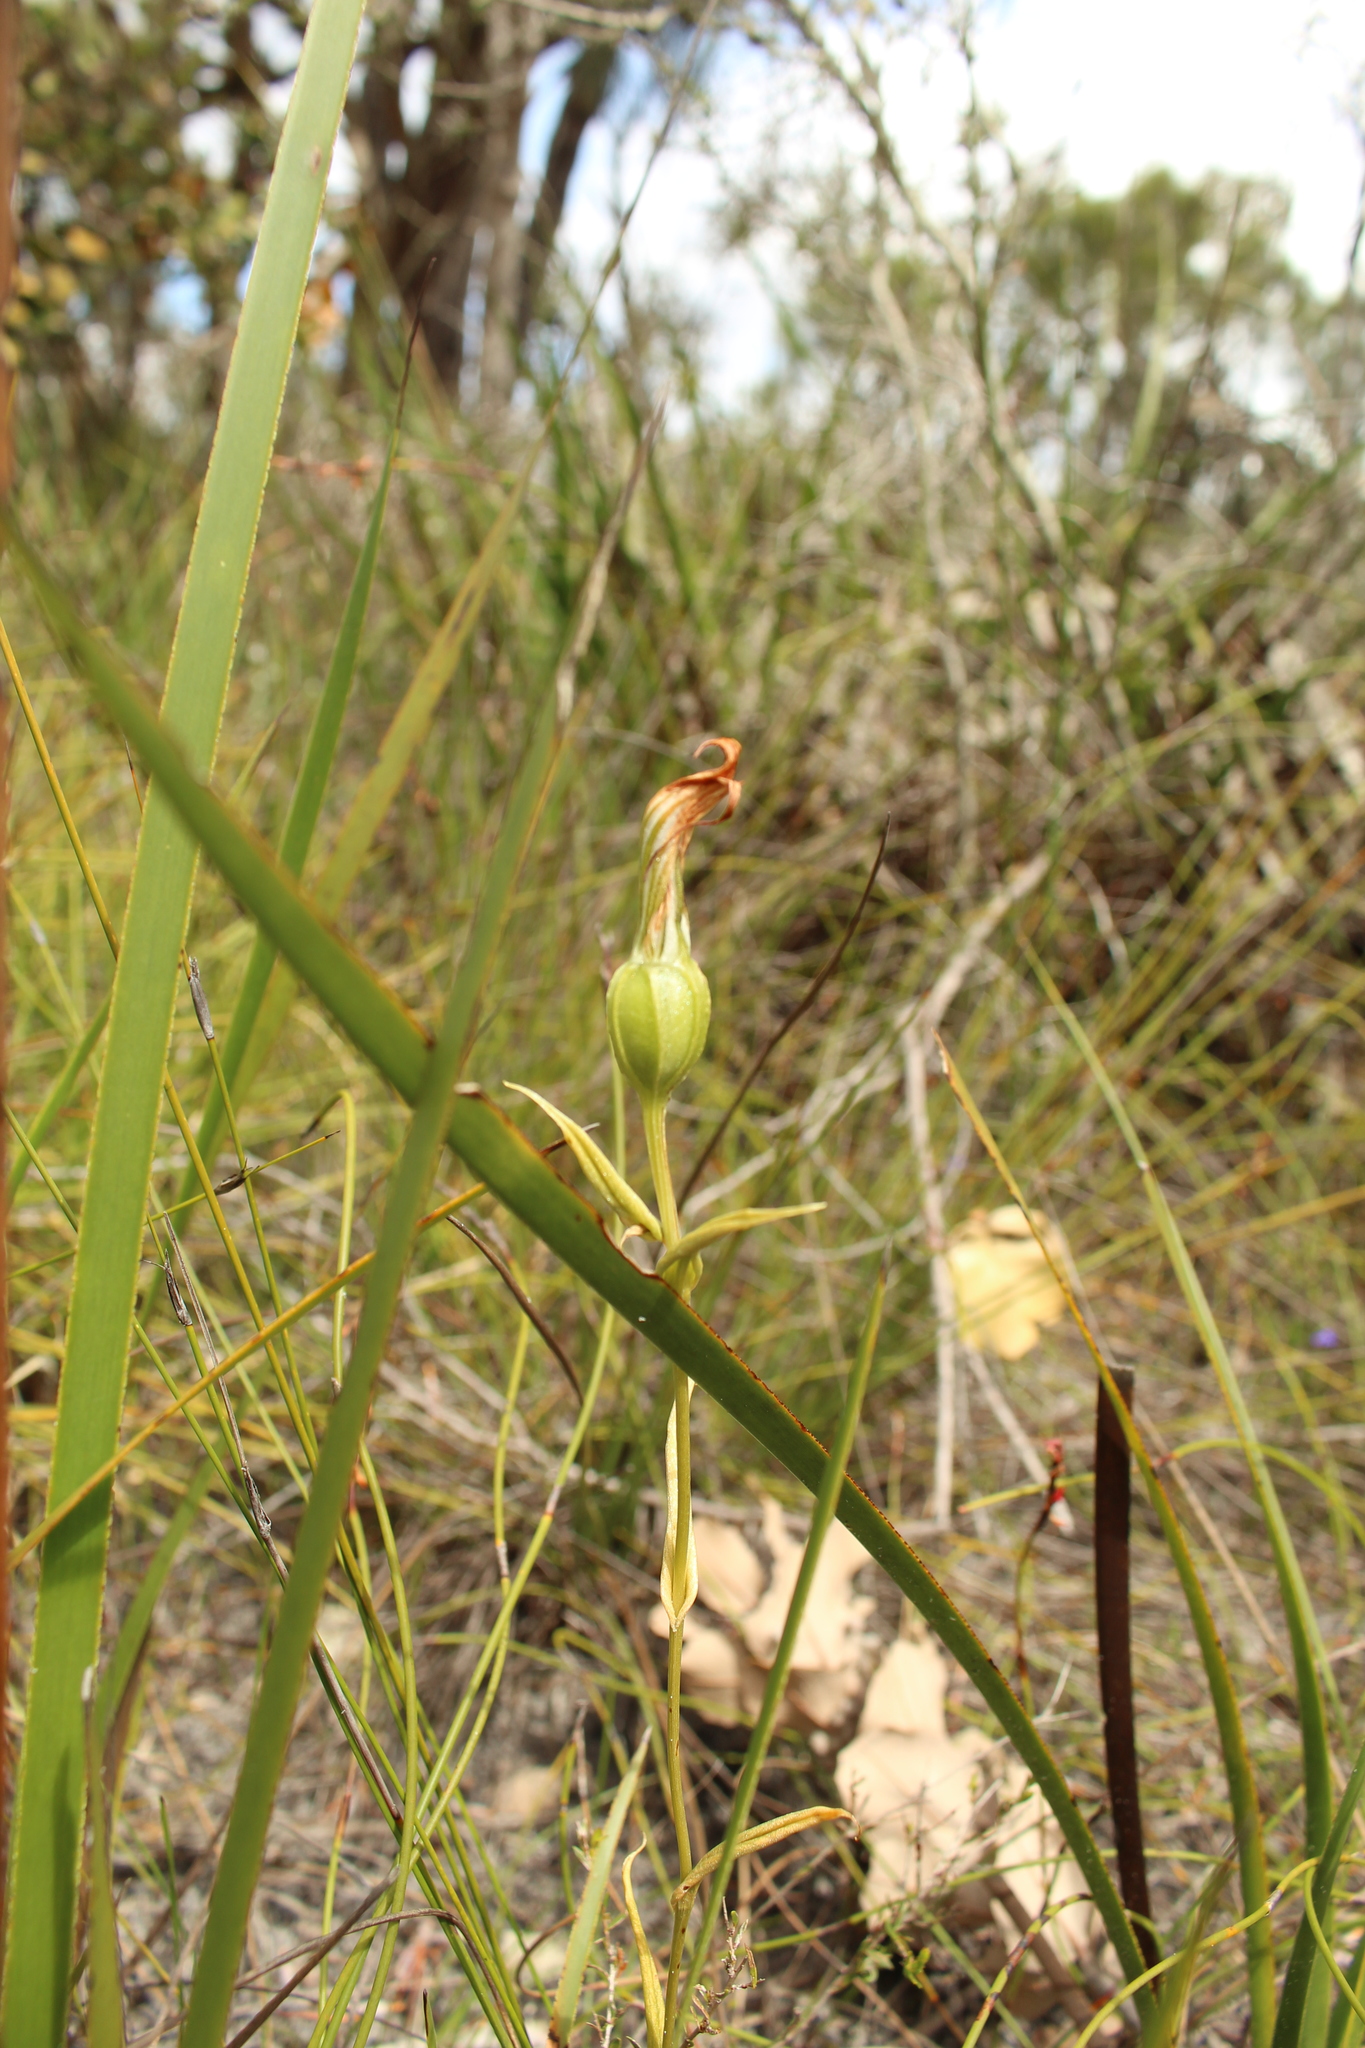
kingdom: Plantae
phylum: Tracheophyta
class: Liliopsida
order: Asparagales
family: Orchidaceae
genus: Pterostylis
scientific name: Pterostylis recurva
